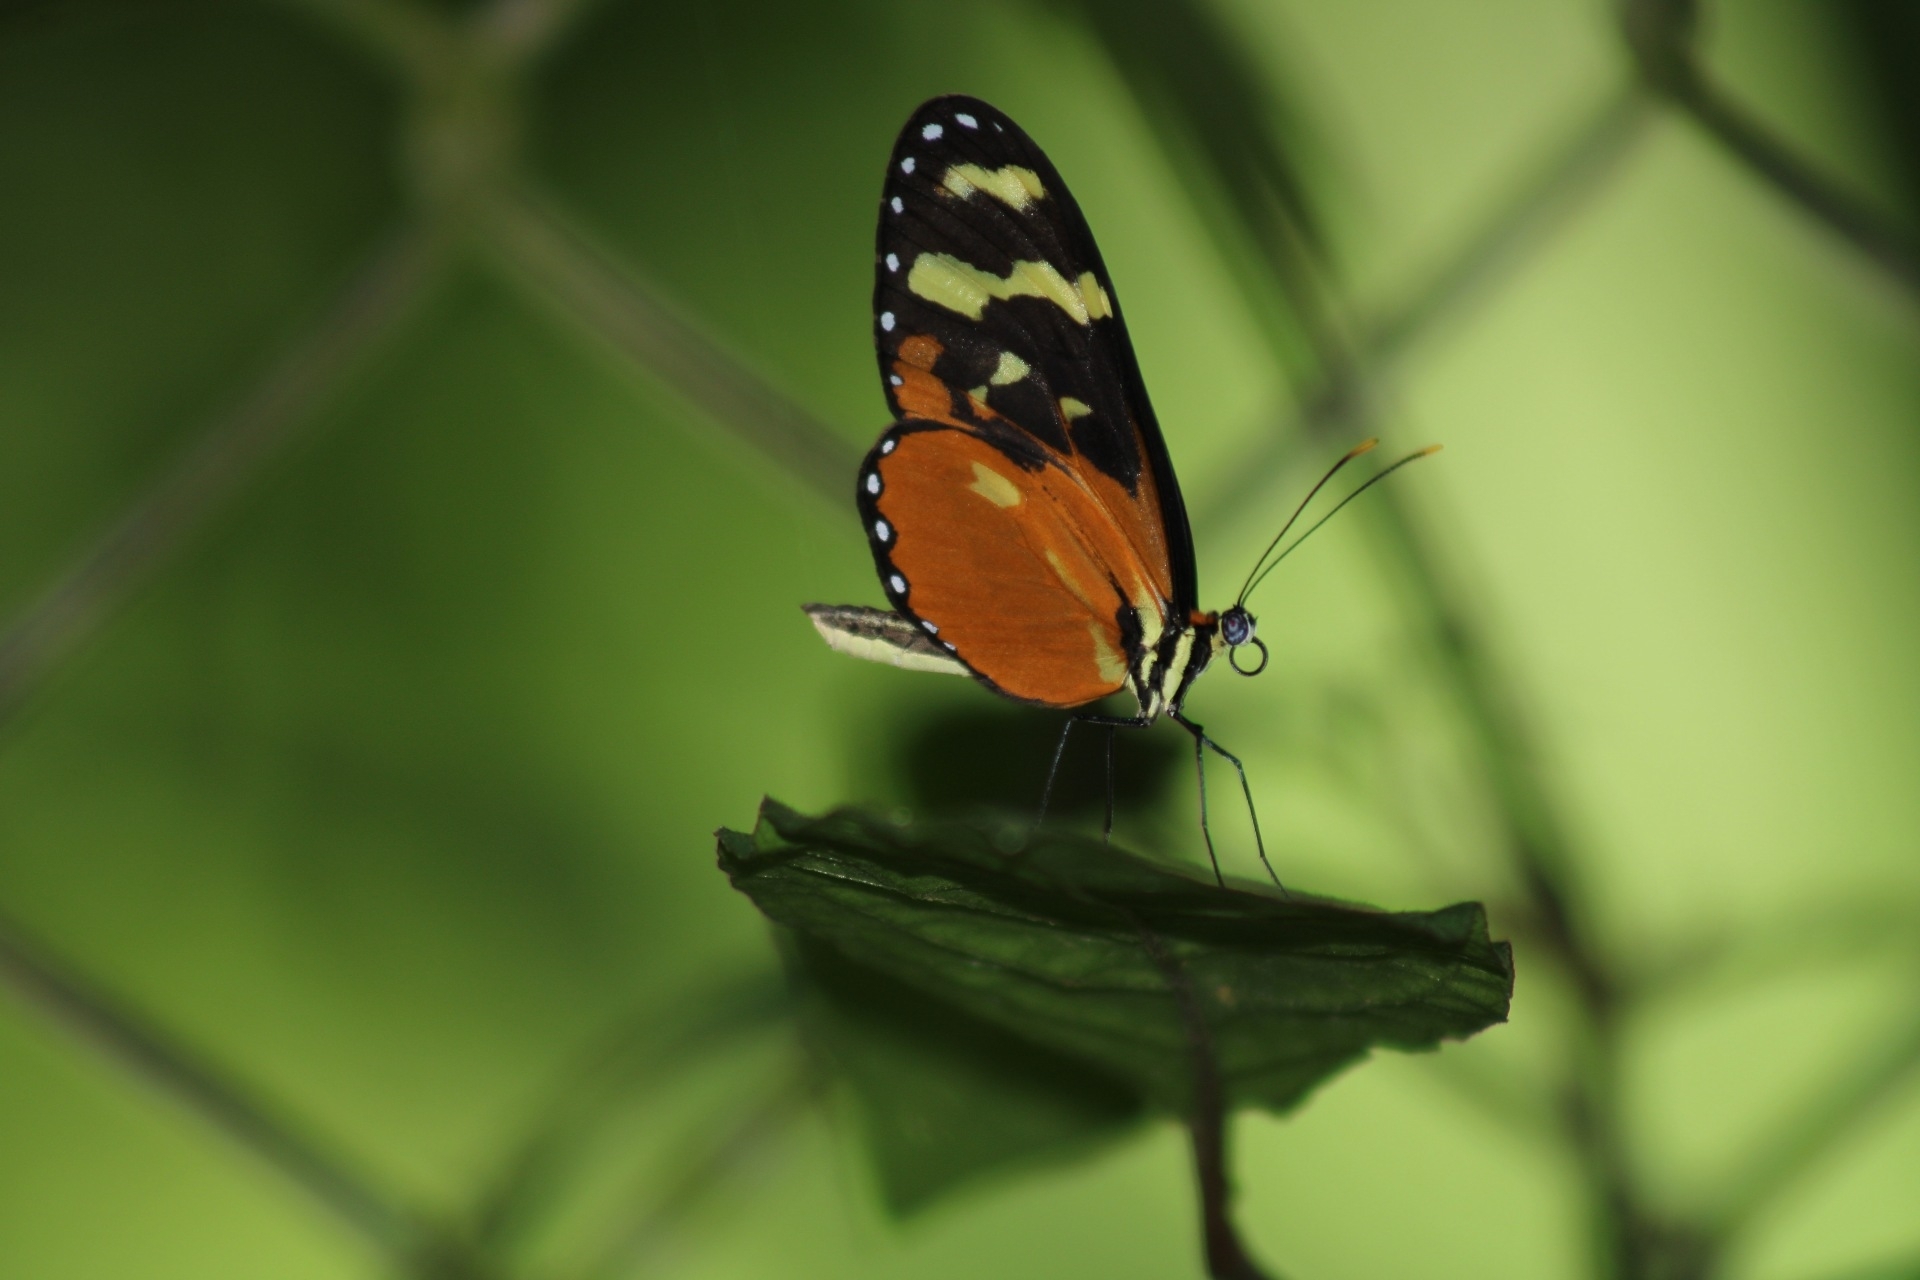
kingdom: Animalia
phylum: Arthropoda
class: Insecta
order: Lepidoptera
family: Nymphalidae
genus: Mechanitis
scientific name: Mechanitis polymnia
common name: Disturbed tigerwing
